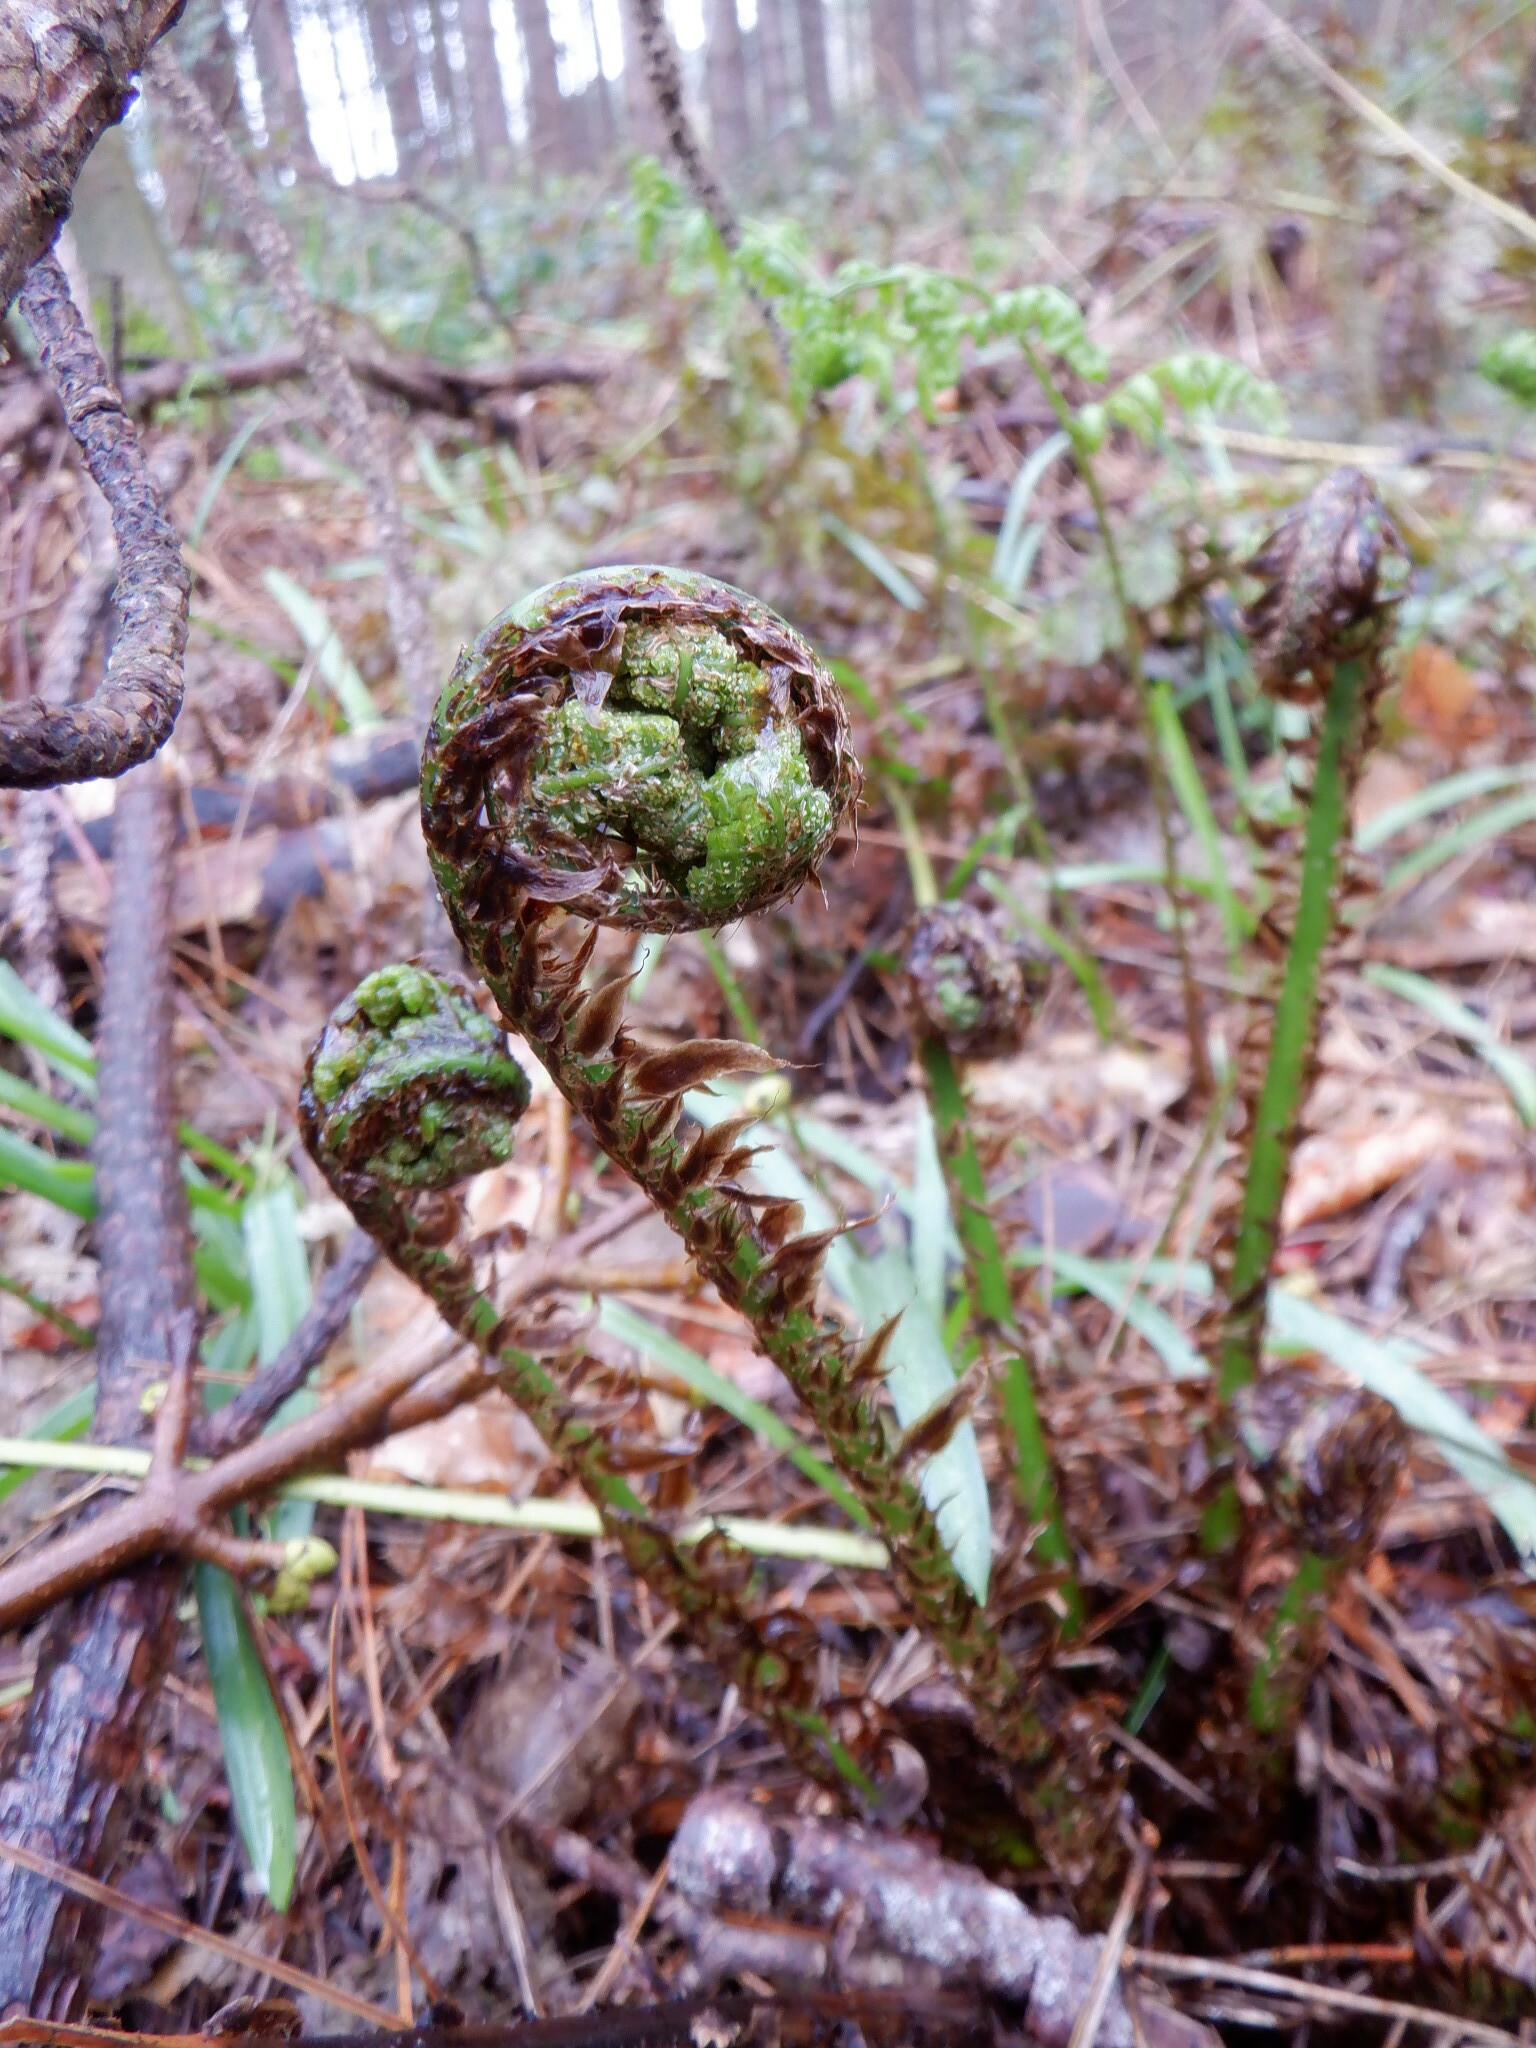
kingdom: Plantae
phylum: Tracheophyta
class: Polypodiopsida
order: Polypodiales
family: Dryopteridaceae
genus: Dryopteris
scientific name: Dryopteris dilatata
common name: Broad buckler-fern
